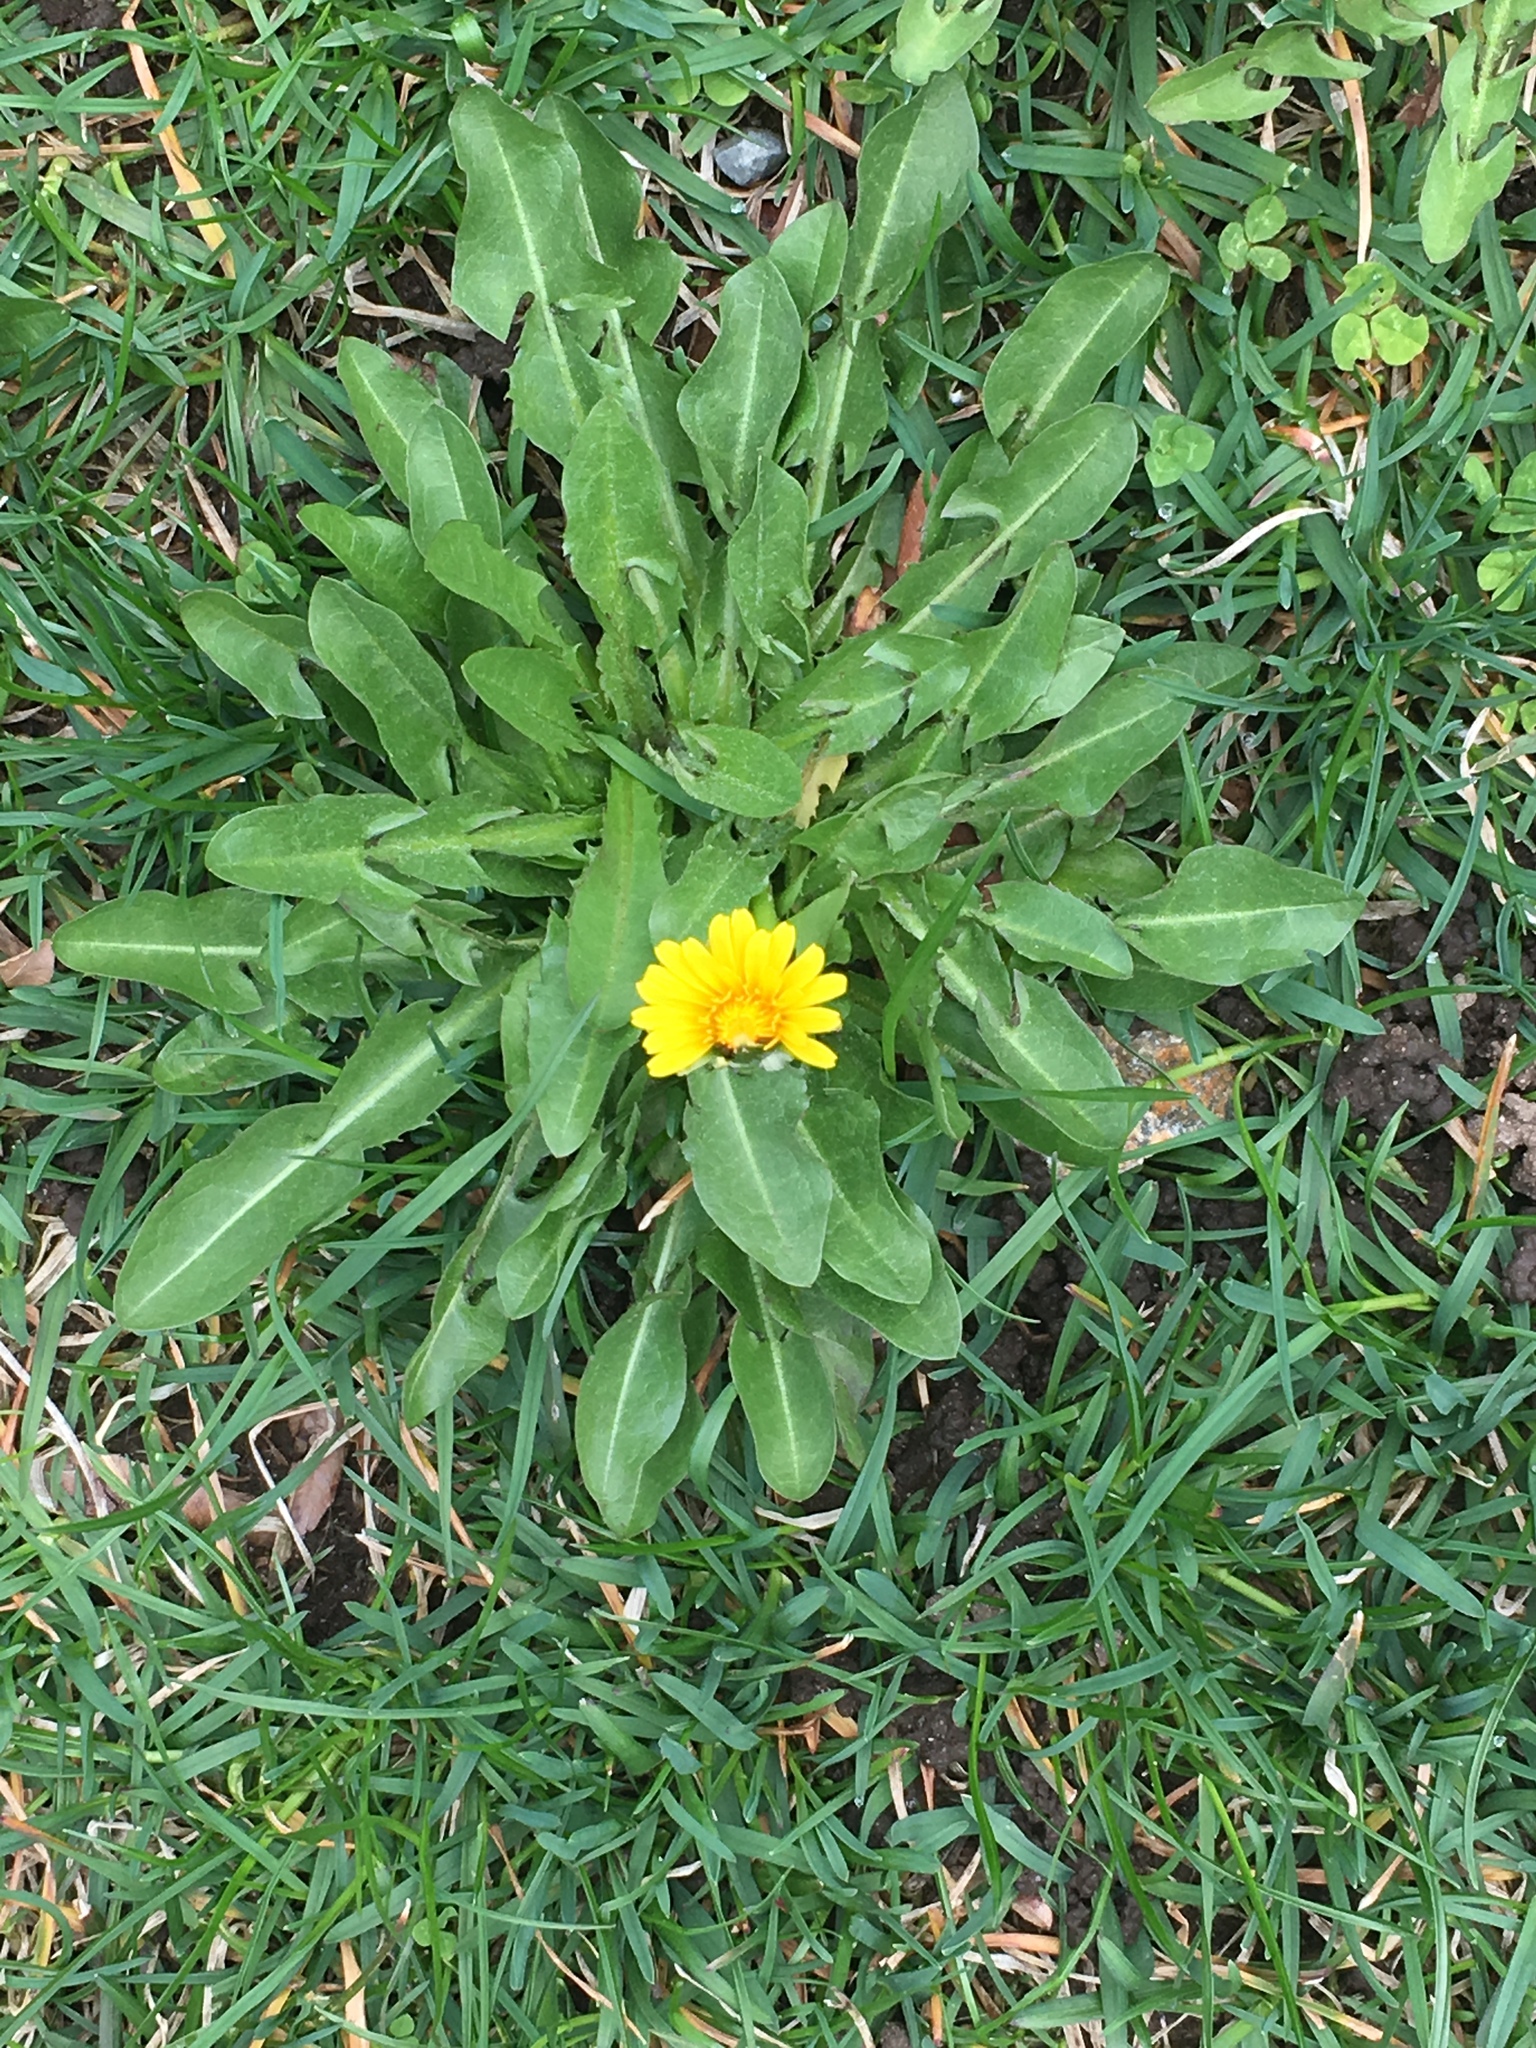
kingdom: Plantae
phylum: Tracheophyta
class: Magnoliopsida
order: Asterales
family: Asteraceae
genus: Taraxacum
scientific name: Taraxacum officinale
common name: Common dandelion
